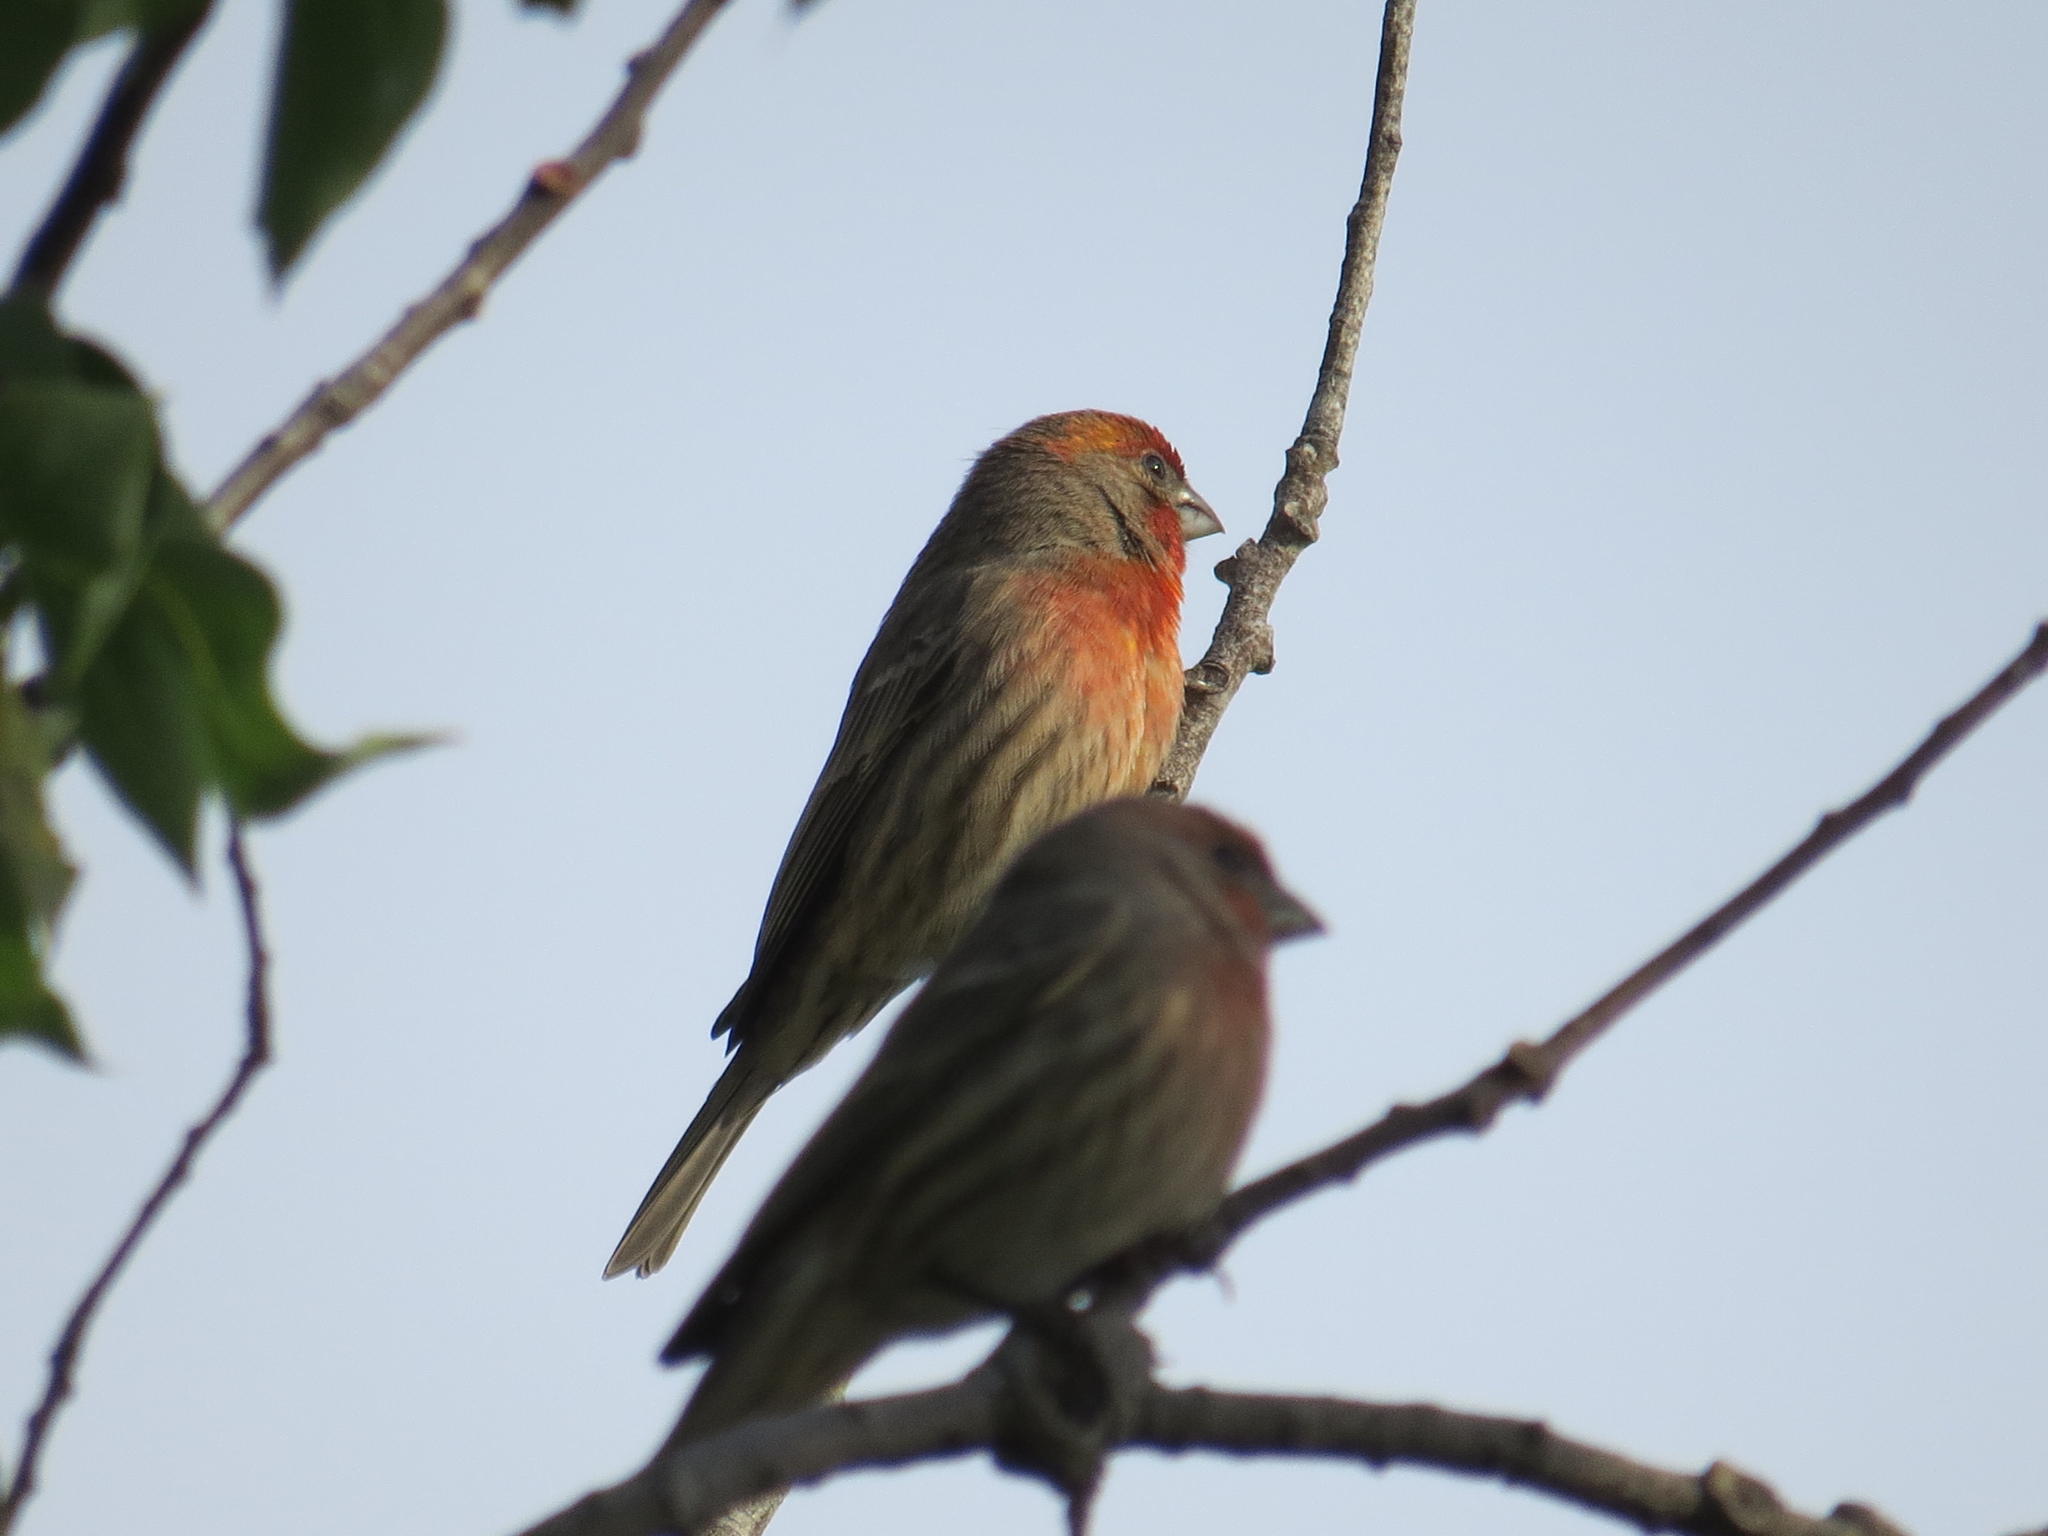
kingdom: Animalia
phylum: Chordata
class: Aves
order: Passeriformes
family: Fringillidae
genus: Haemorhous
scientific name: Haemorhous mexicanus
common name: House finch
